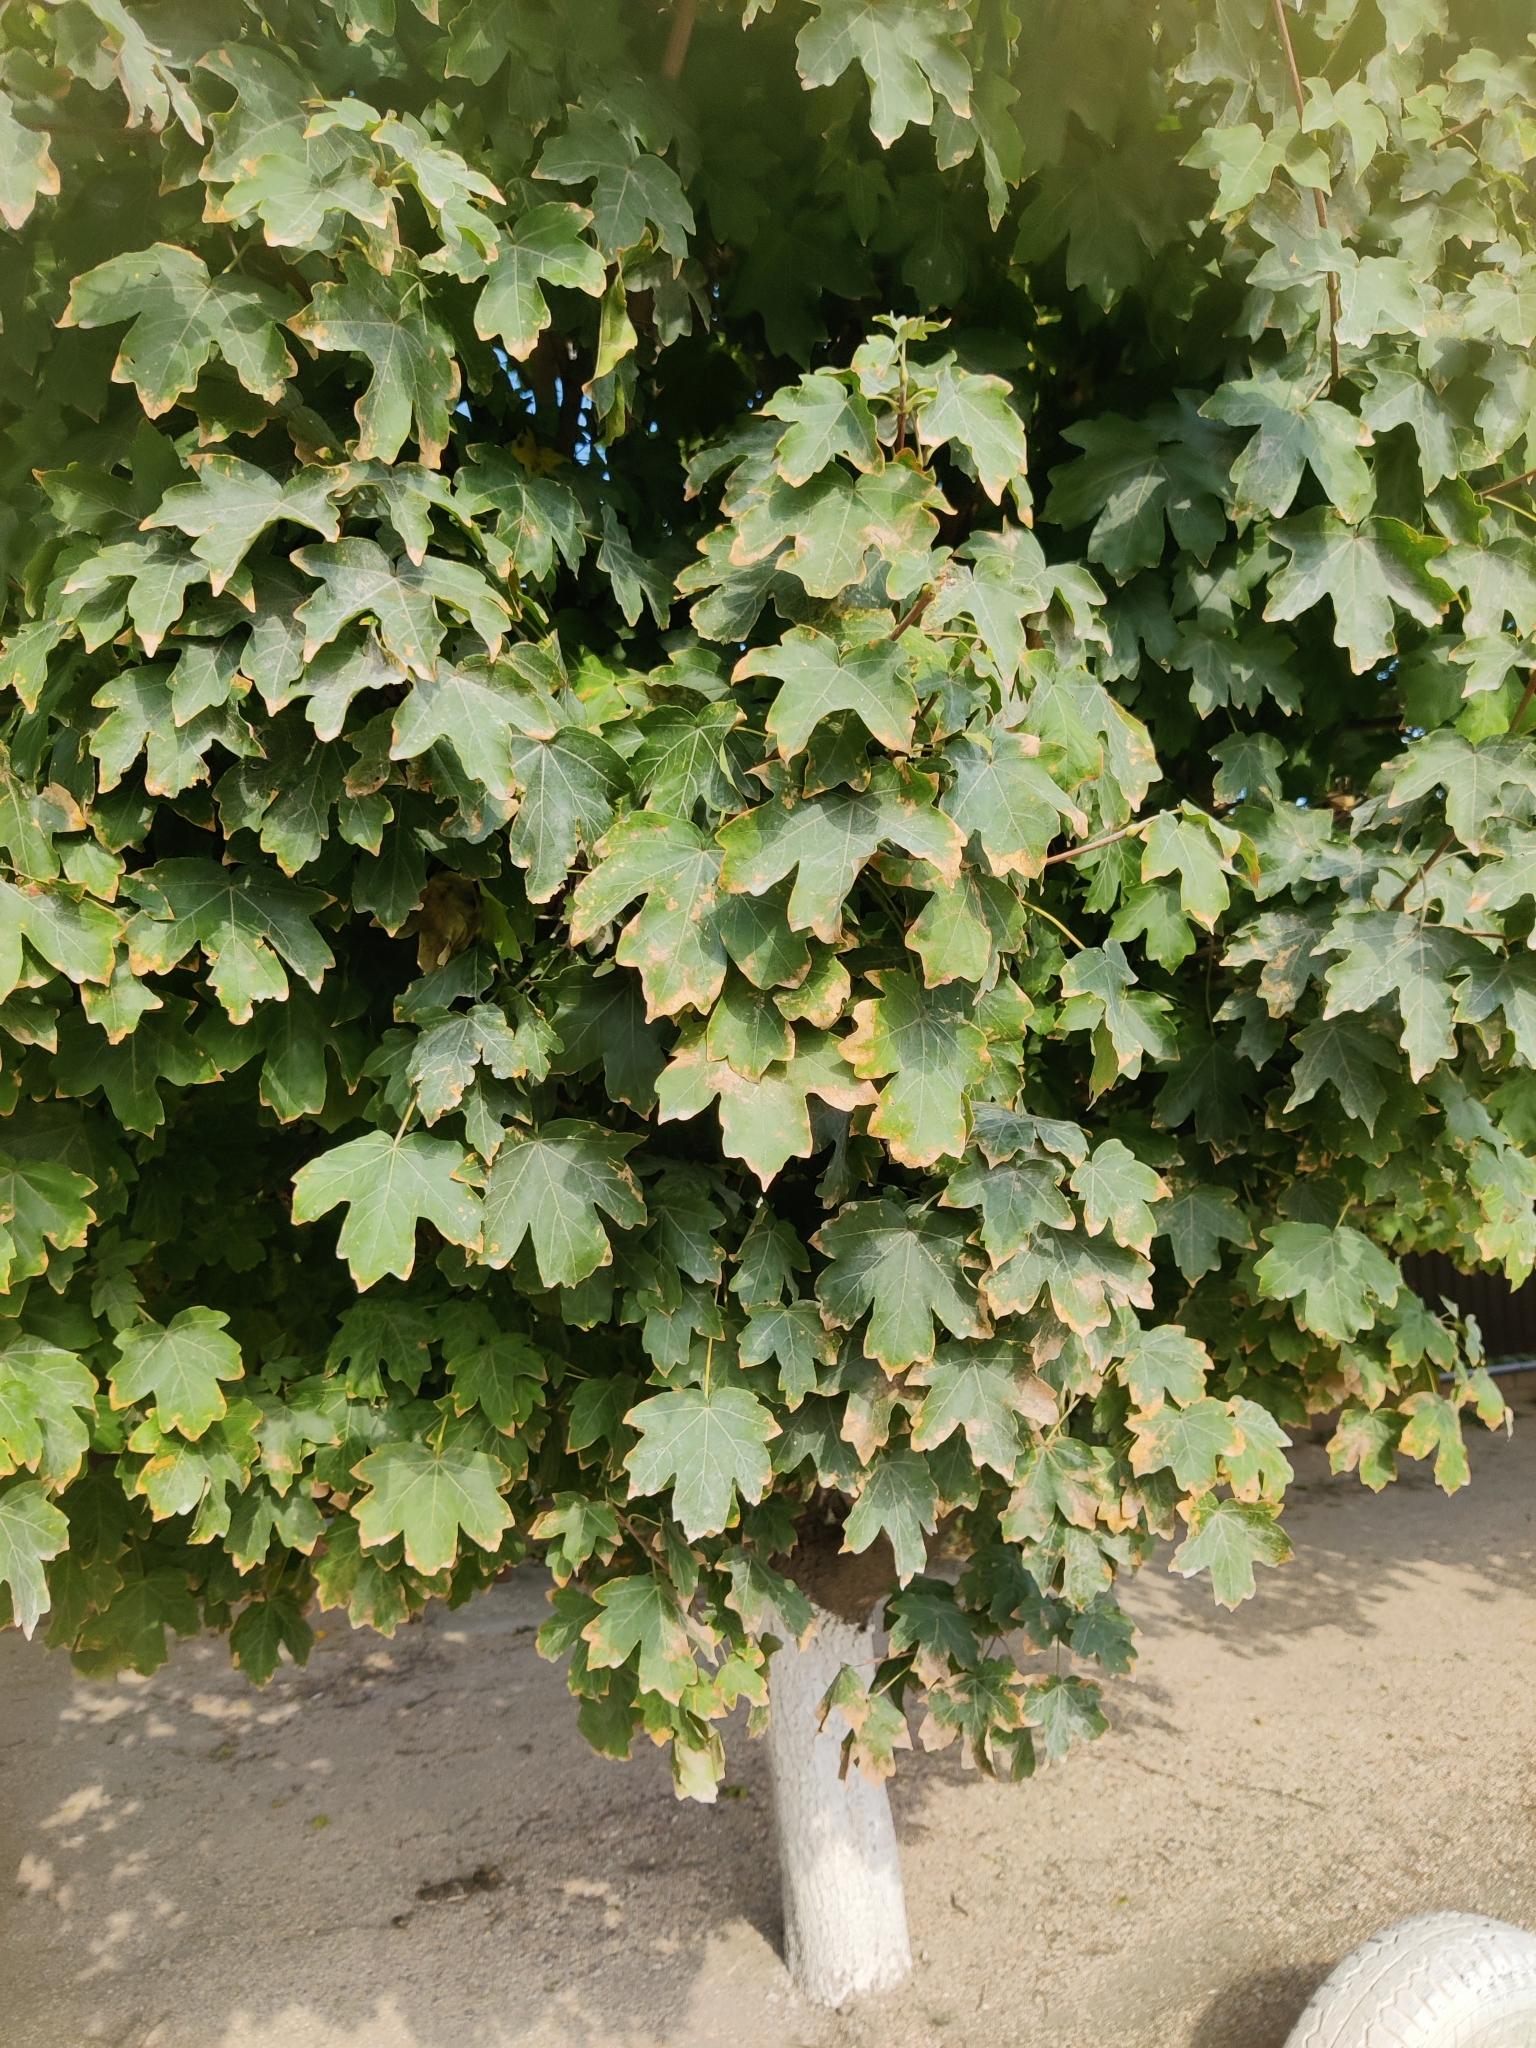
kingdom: Plantae
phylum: Tracheophyta
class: Magnoliopsida
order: Sapindales
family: Sapindaceae
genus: Acer
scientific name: Acer campestre
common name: Field maple
